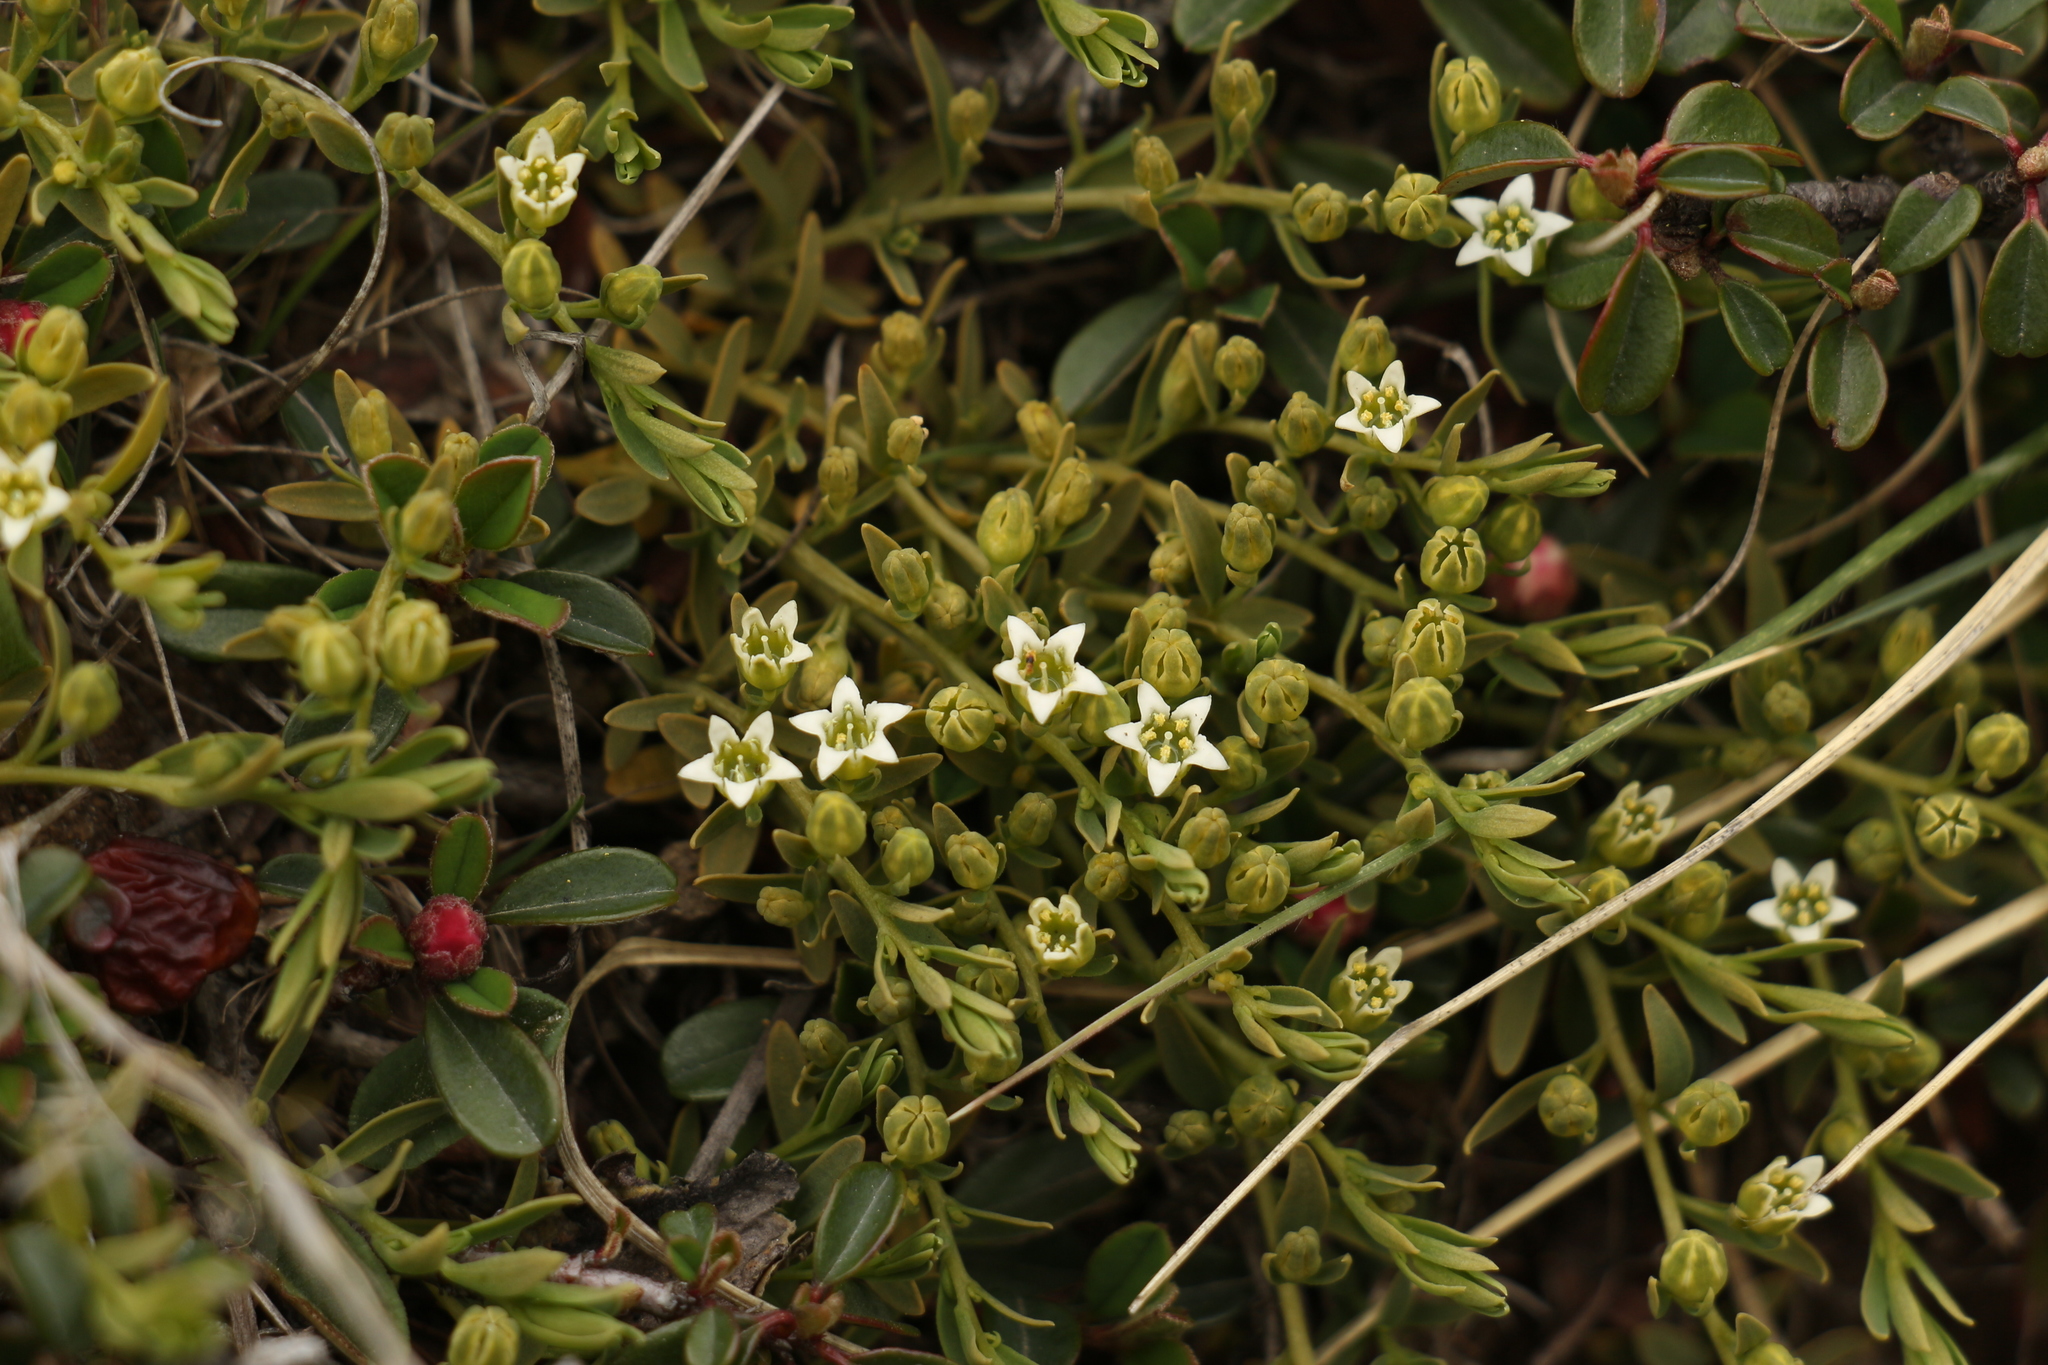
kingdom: Plantae
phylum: Tracheophyta
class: Magnoliopsida
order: Santalales
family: Thesiaceae
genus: Thesium
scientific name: Thesium emodi
